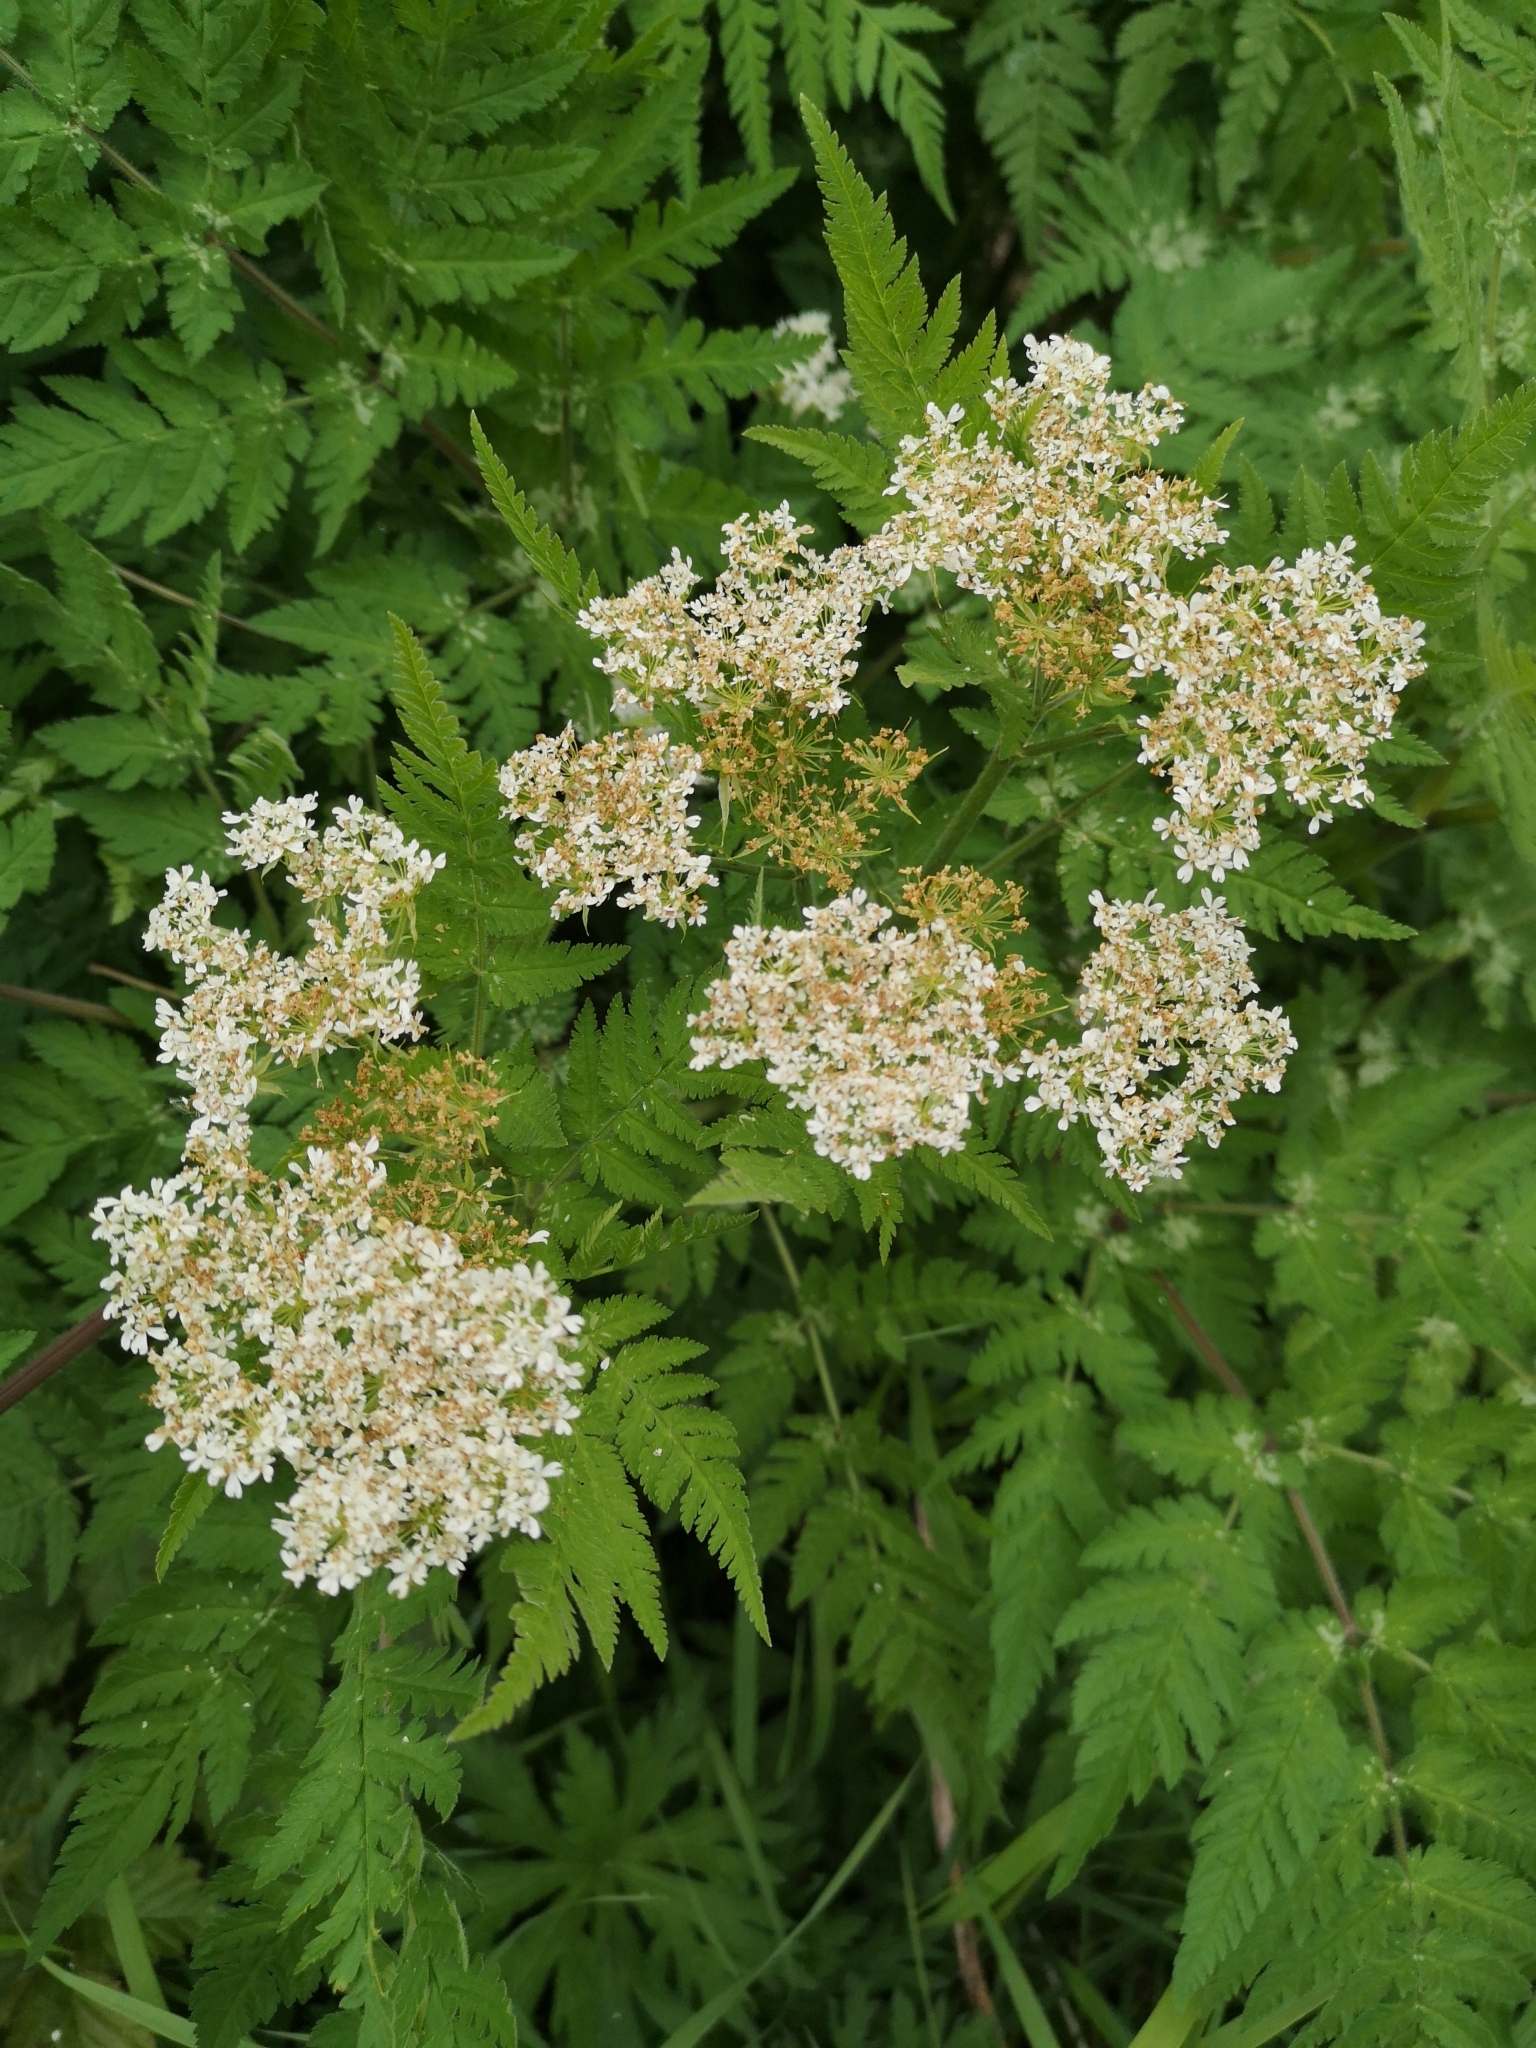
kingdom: Plantae
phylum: Tracheophyta
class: Magnoliopsida
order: Apiales
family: Apiaceae
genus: Myrrhis
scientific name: Myrrhis odorata
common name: Sweet cicely
